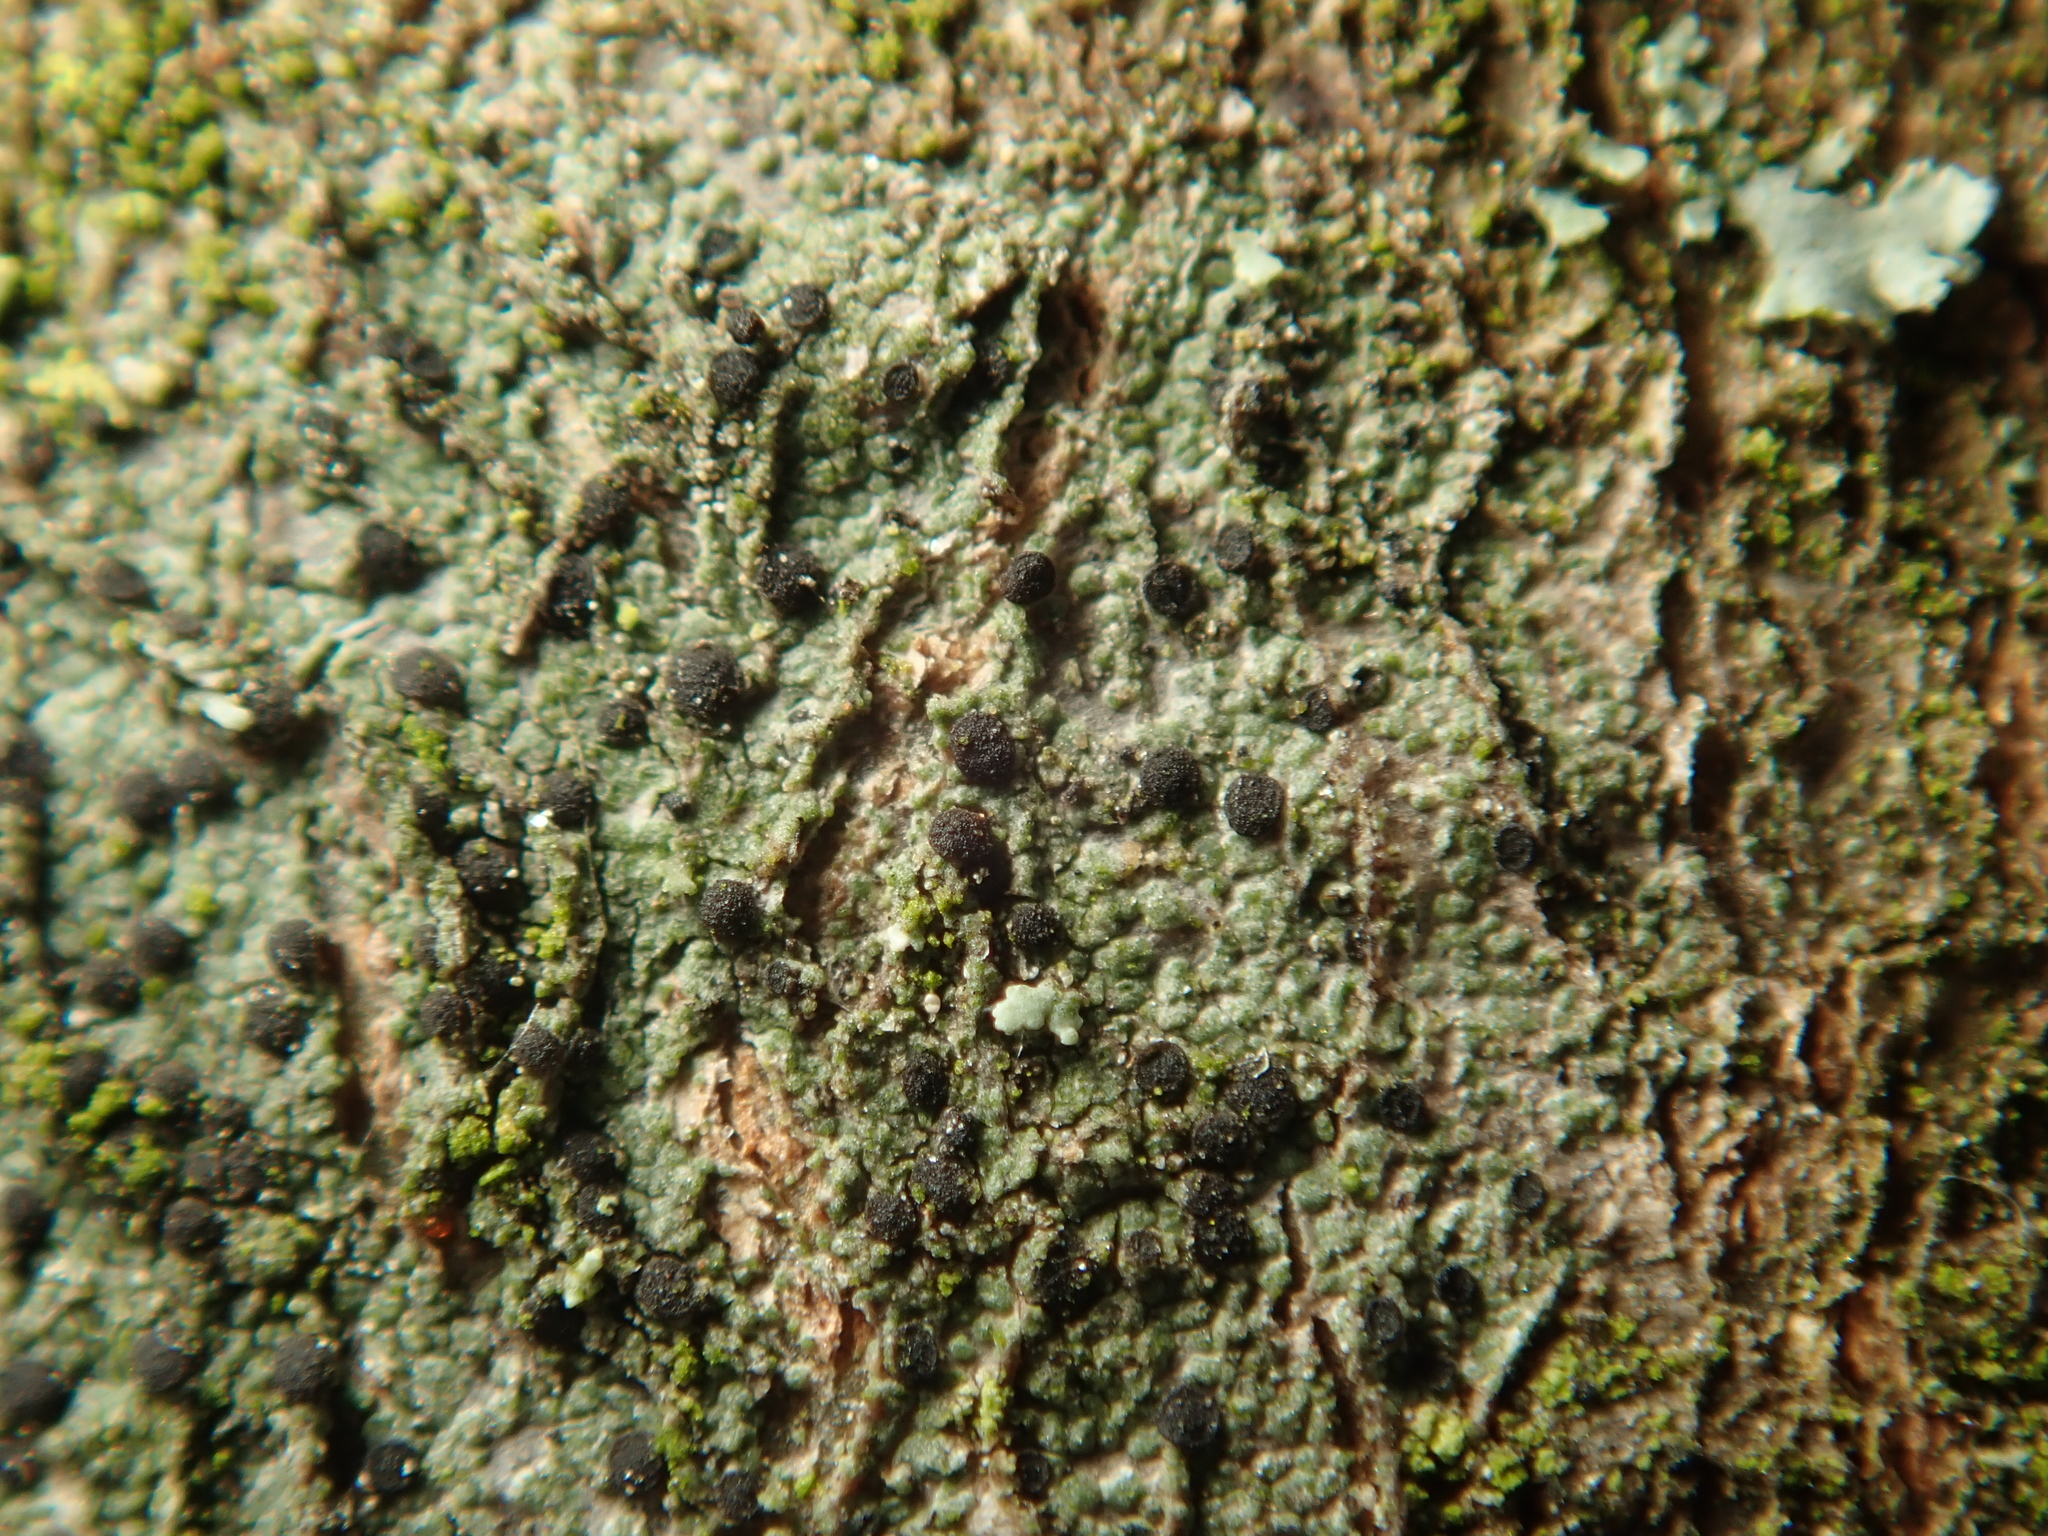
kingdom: Fungi
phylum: Ascomycota
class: Lecanoromycetes
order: Lecanorales
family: Lecanoraceae
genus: Lecidella
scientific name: Lecidella elaeochroma
